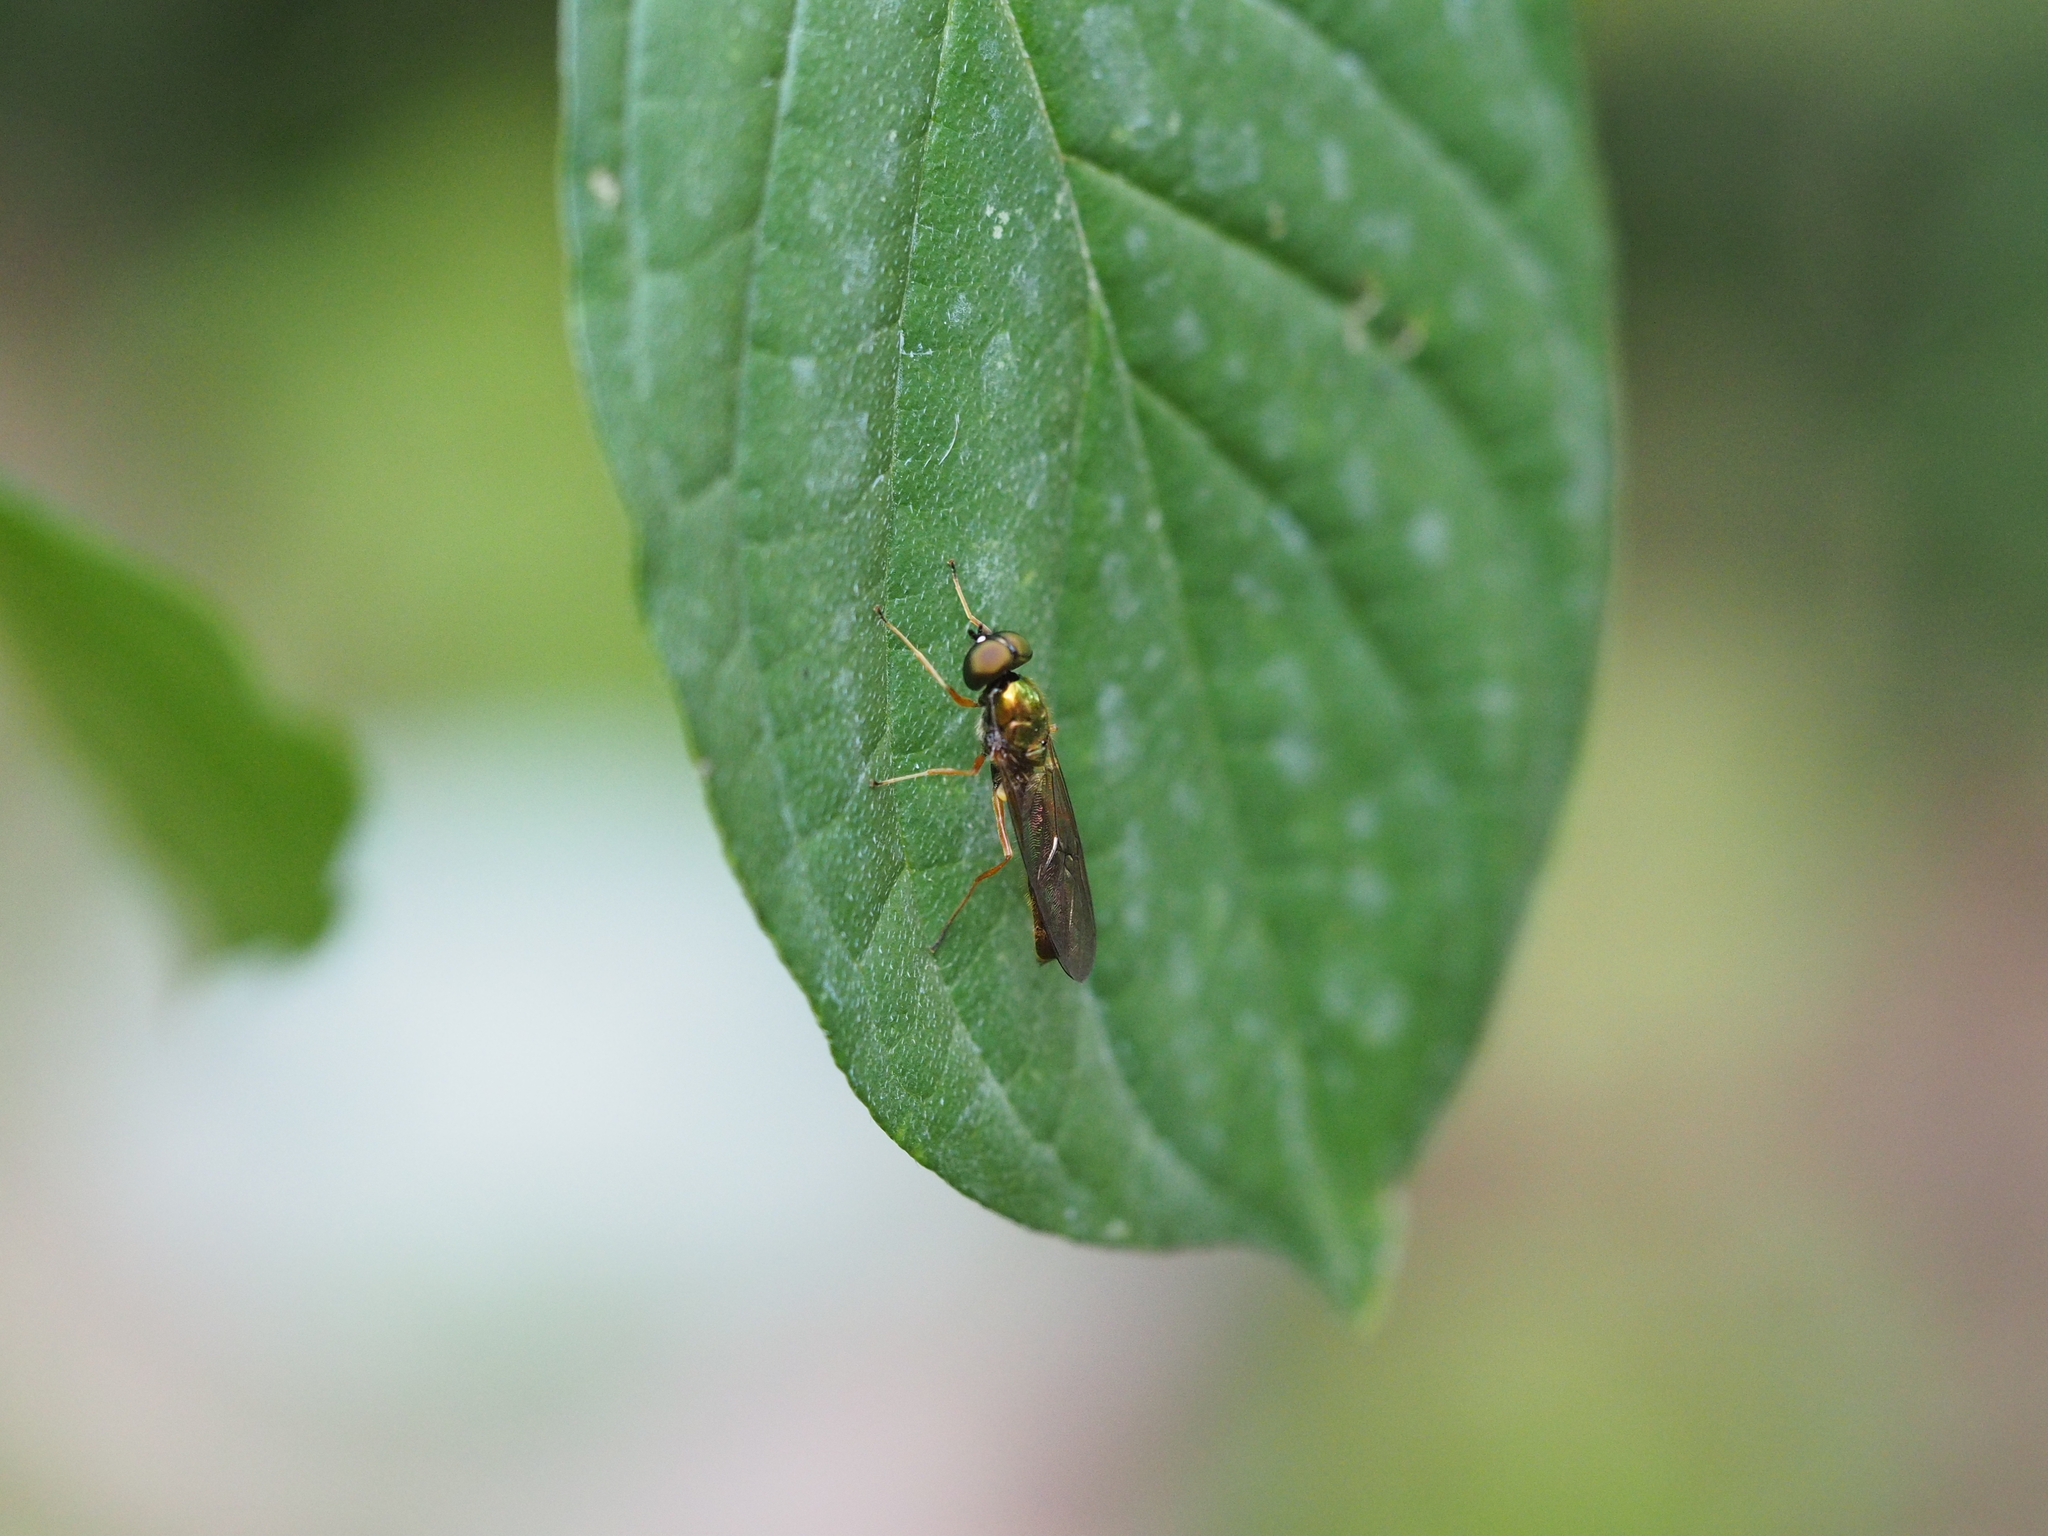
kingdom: Animalia
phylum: Arthropoda
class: Insecta
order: Diptera
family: Stratiomyidae
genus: Sargus
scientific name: Sargus bipunctatus
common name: Twin-spot centurion
